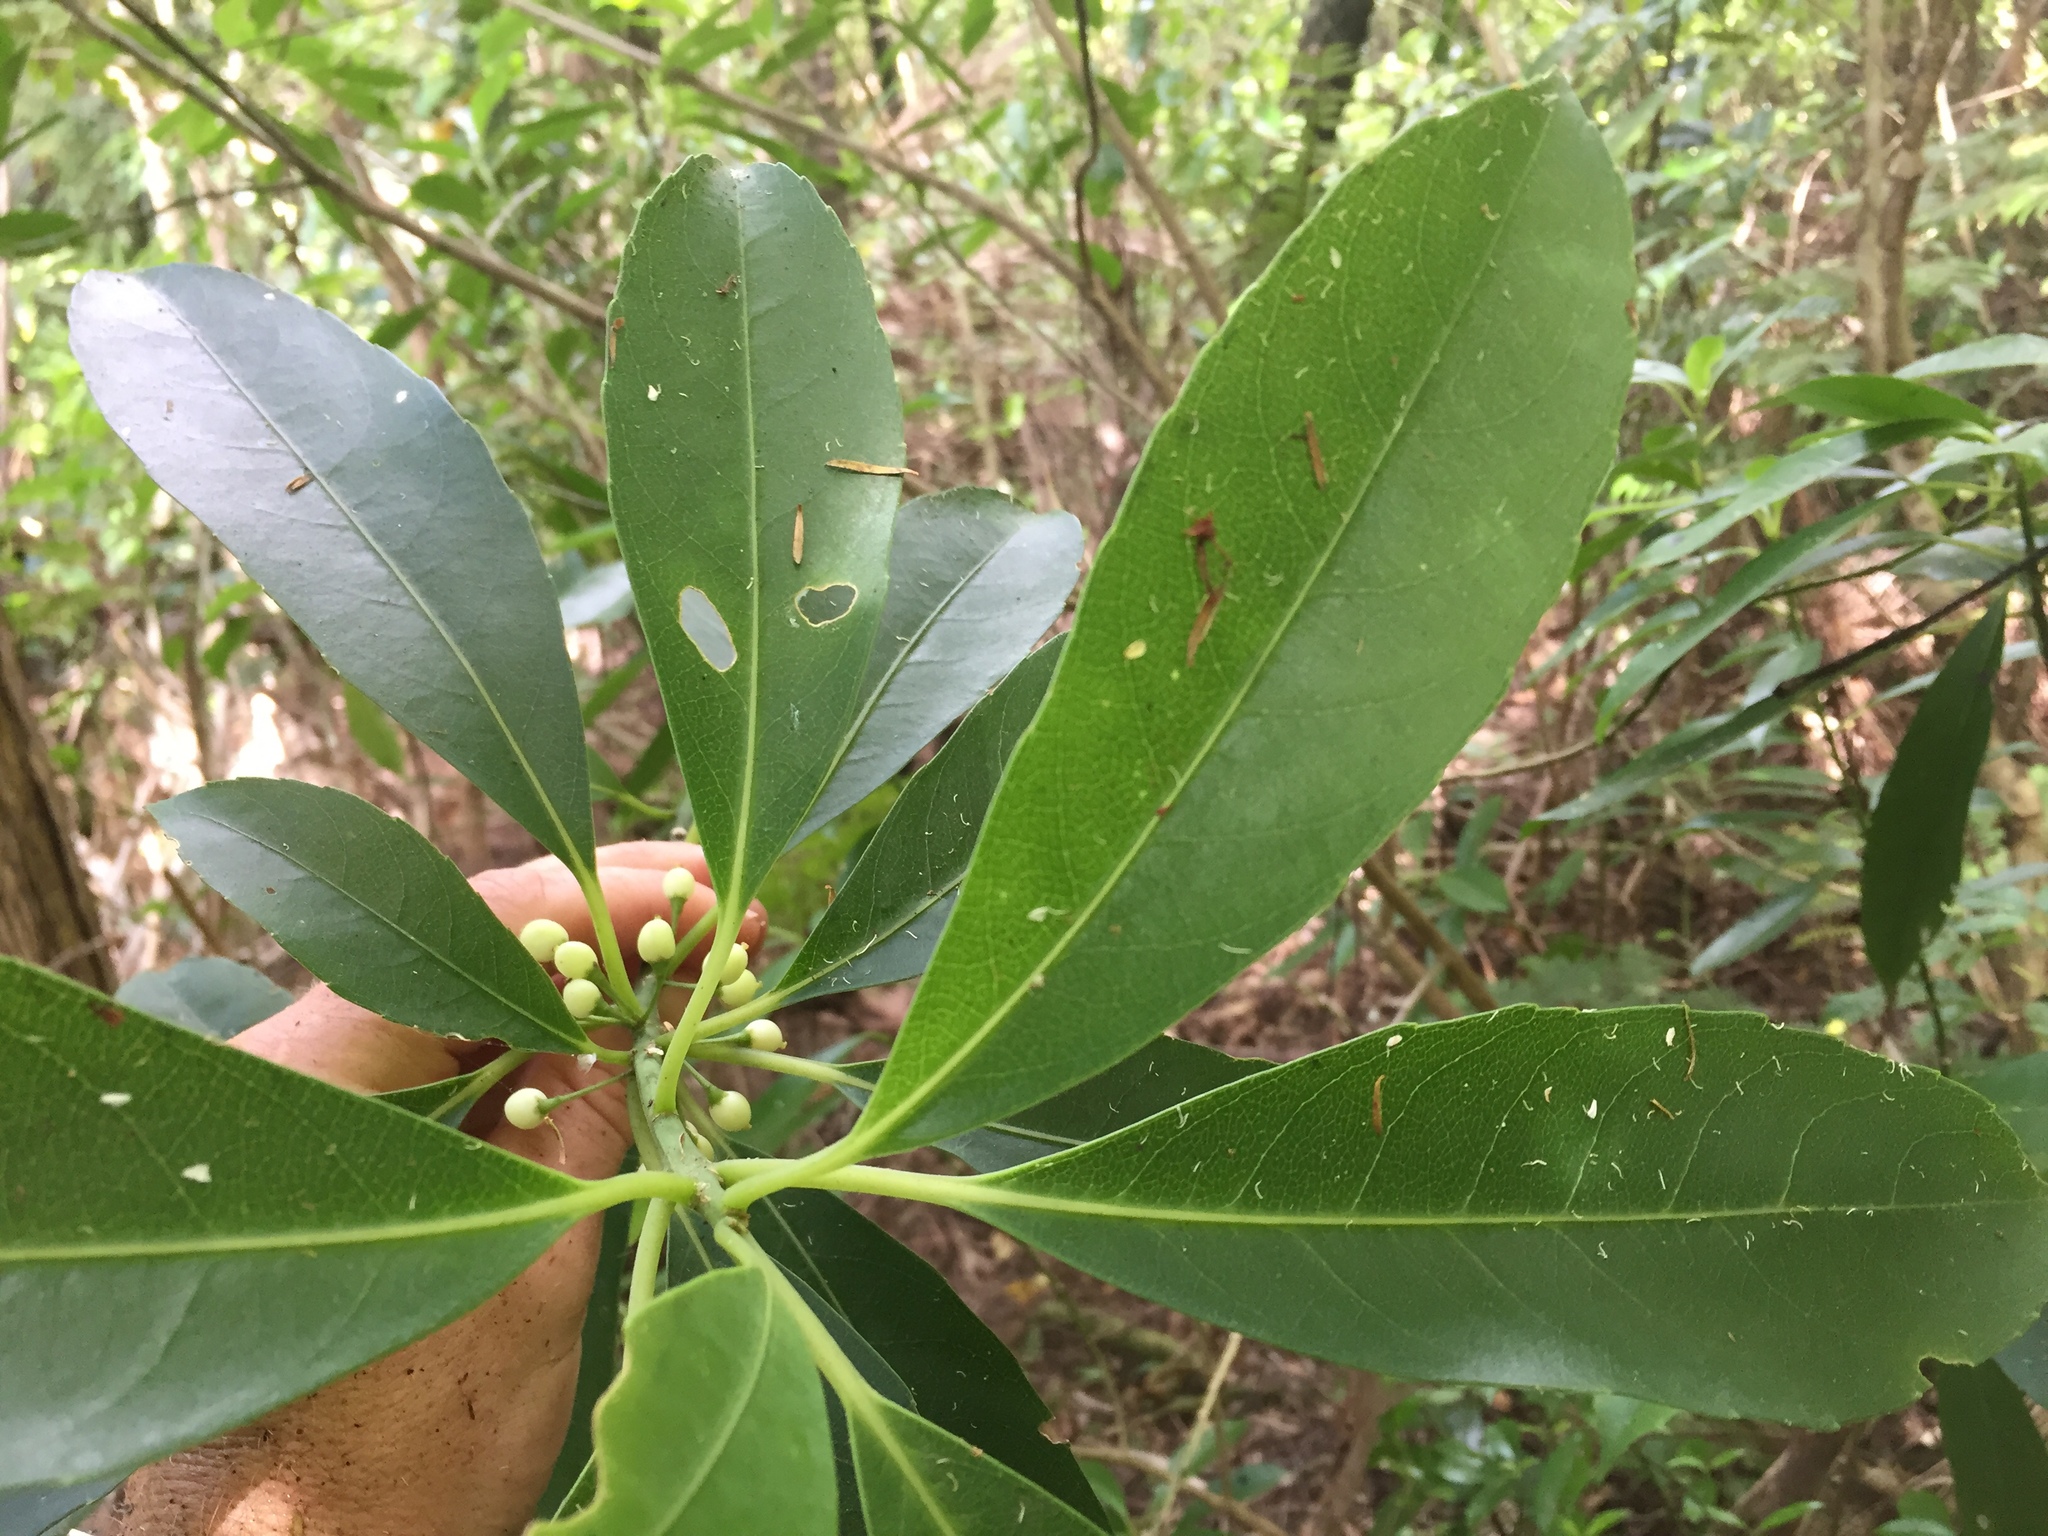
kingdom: Plantae
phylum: Tracheophyta
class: Magnoliopsida
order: Malpighiales
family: Violaceae
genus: Melicytus
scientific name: Melicytus macrophyllus
